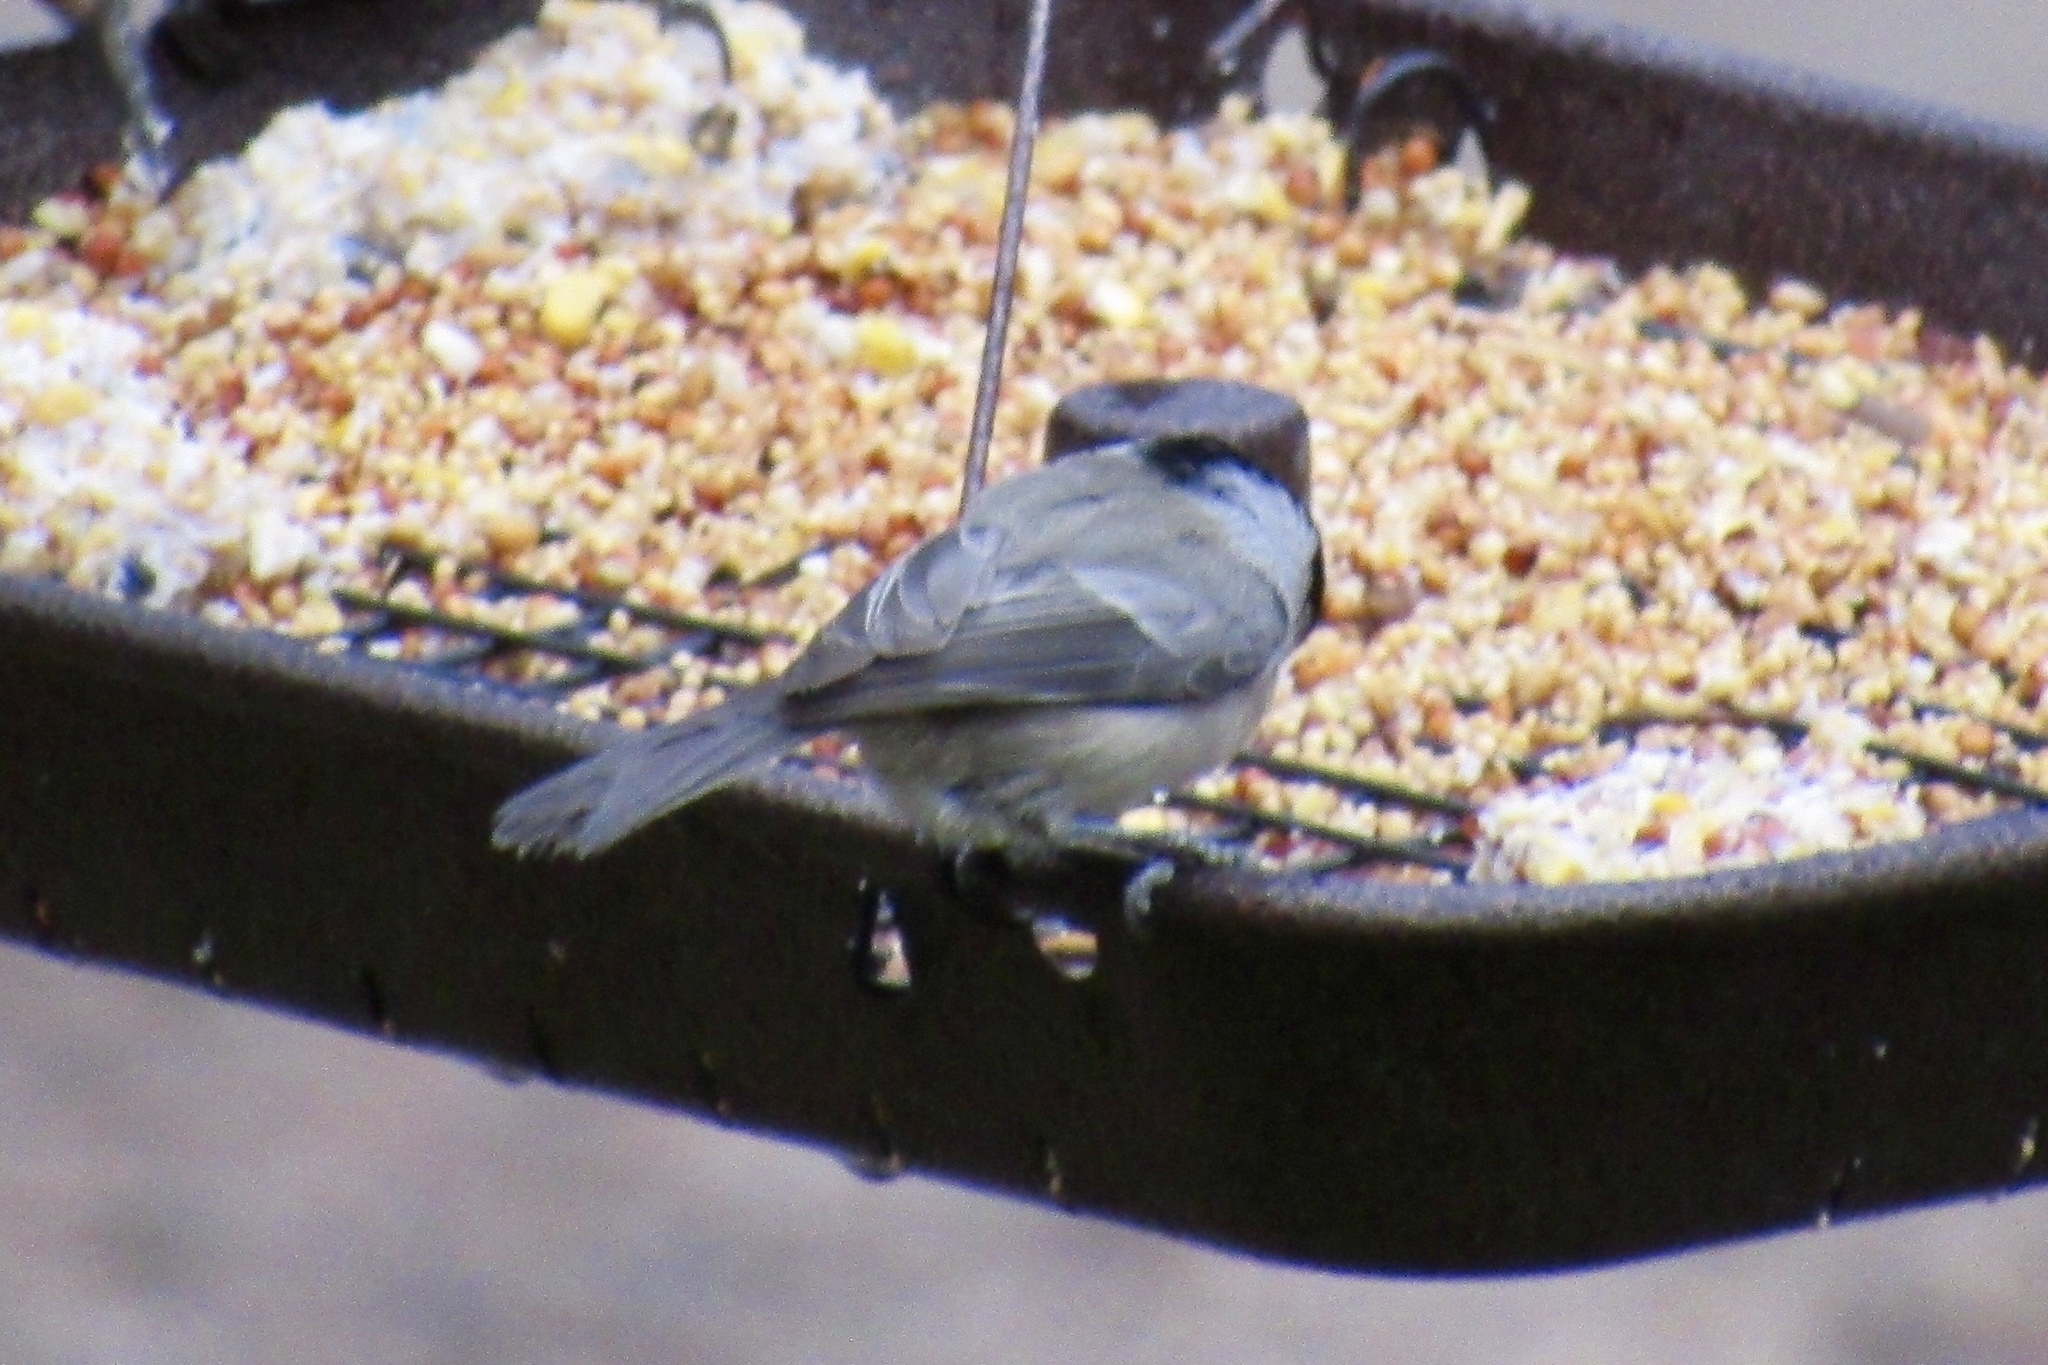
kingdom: Animalia
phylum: Chordata
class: Aves
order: Passeriformes
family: Paridae
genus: Poecile
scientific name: Poecile gambeli
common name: Mountain chickadee
